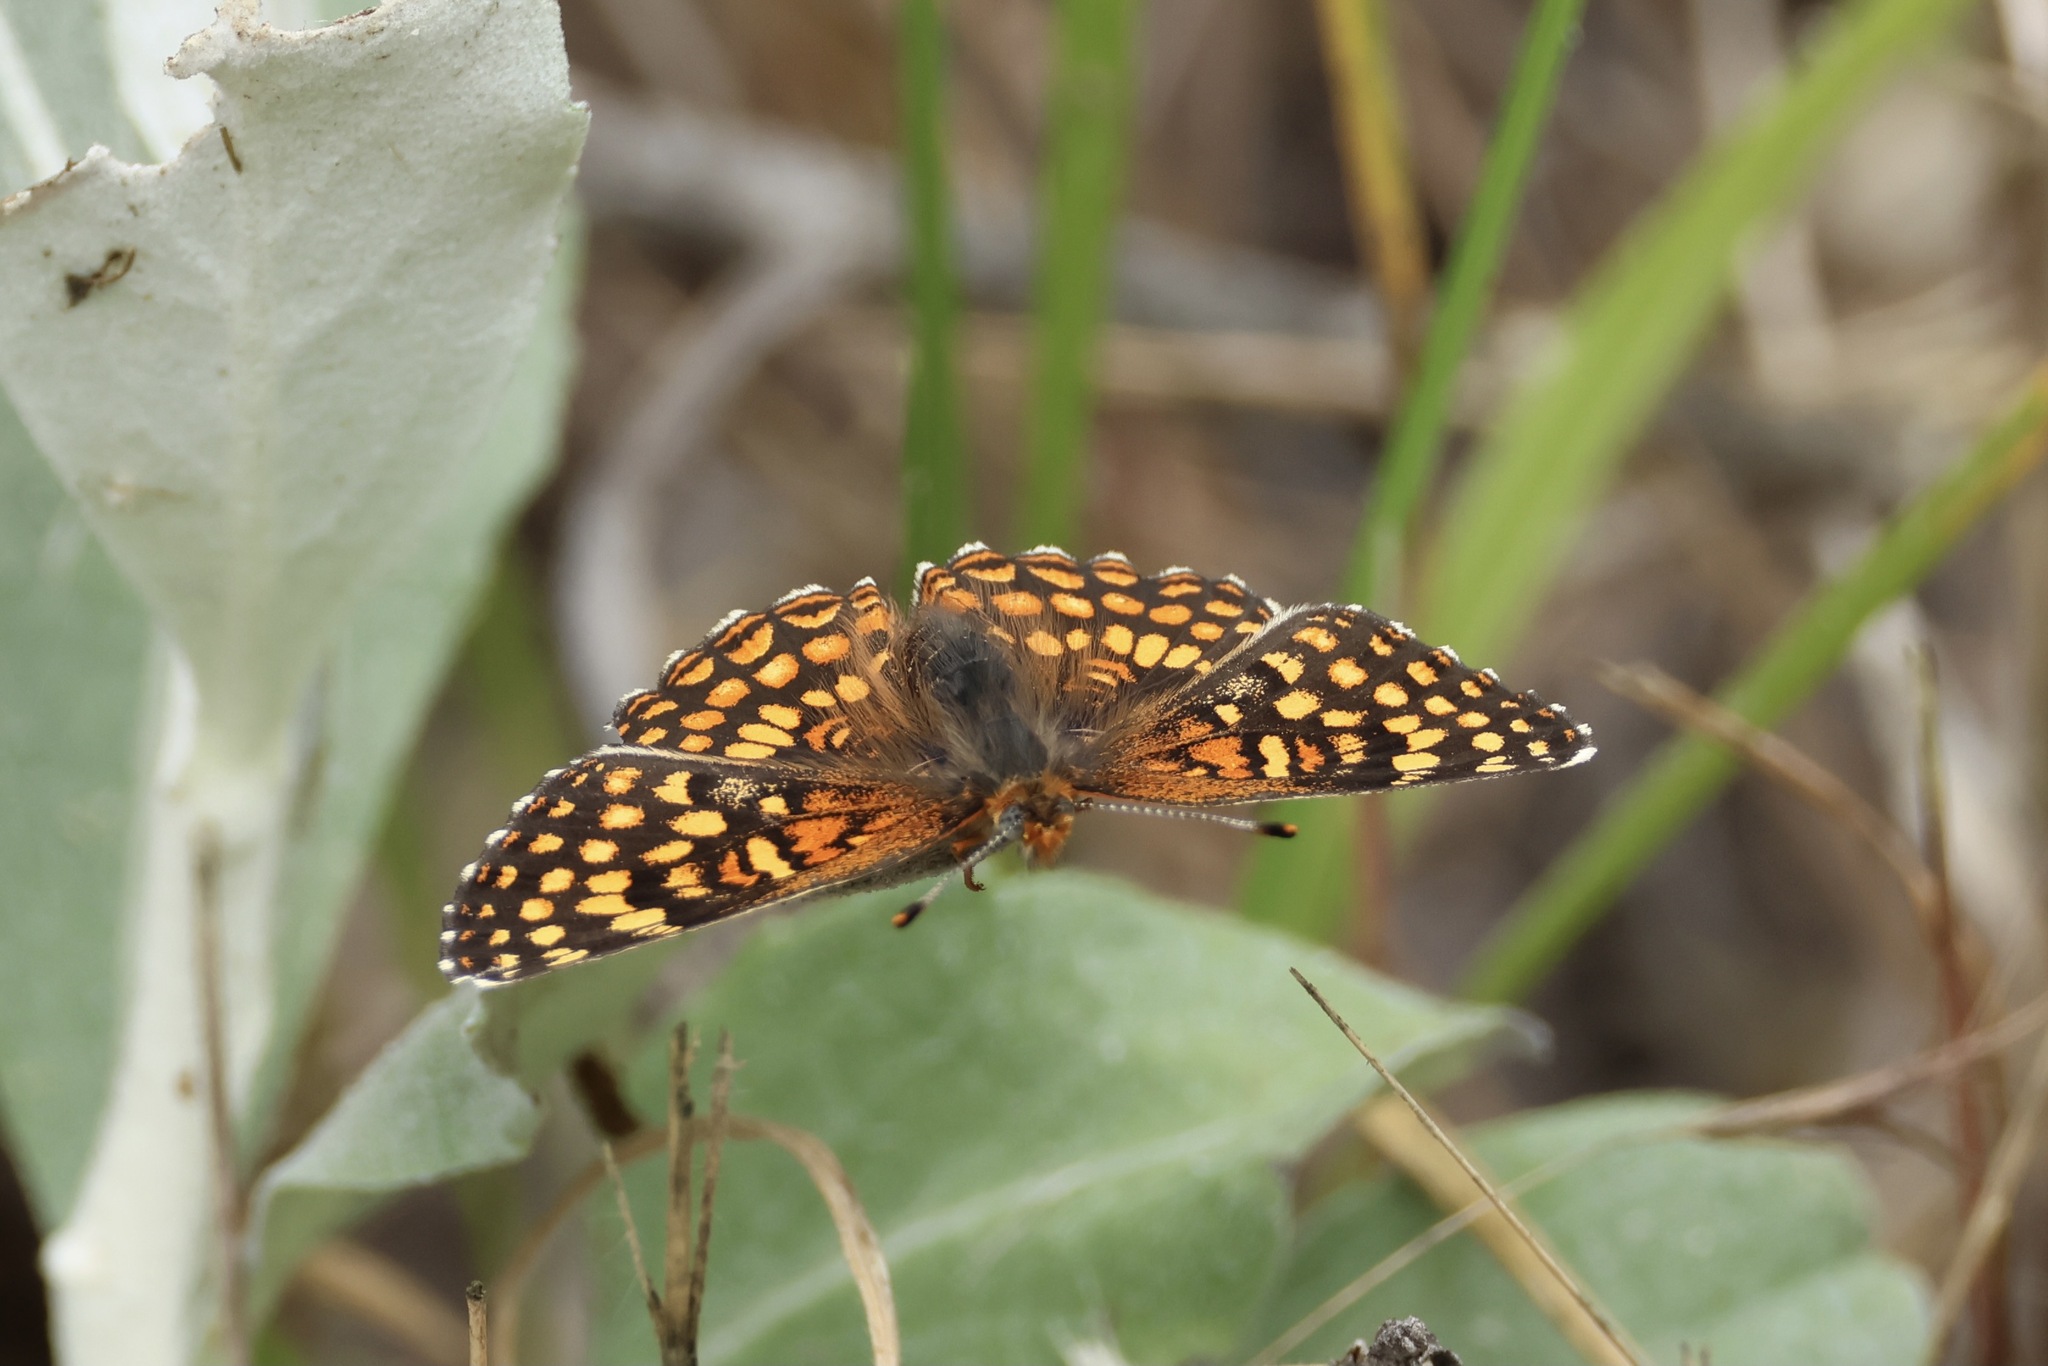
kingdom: Animalia
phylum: Arthropoda
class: Insecta
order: Lepidoptera
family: Nymphalidae
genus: Chlosyne
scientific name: Chlosyne gabbii
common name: Gabb's checkerspot
